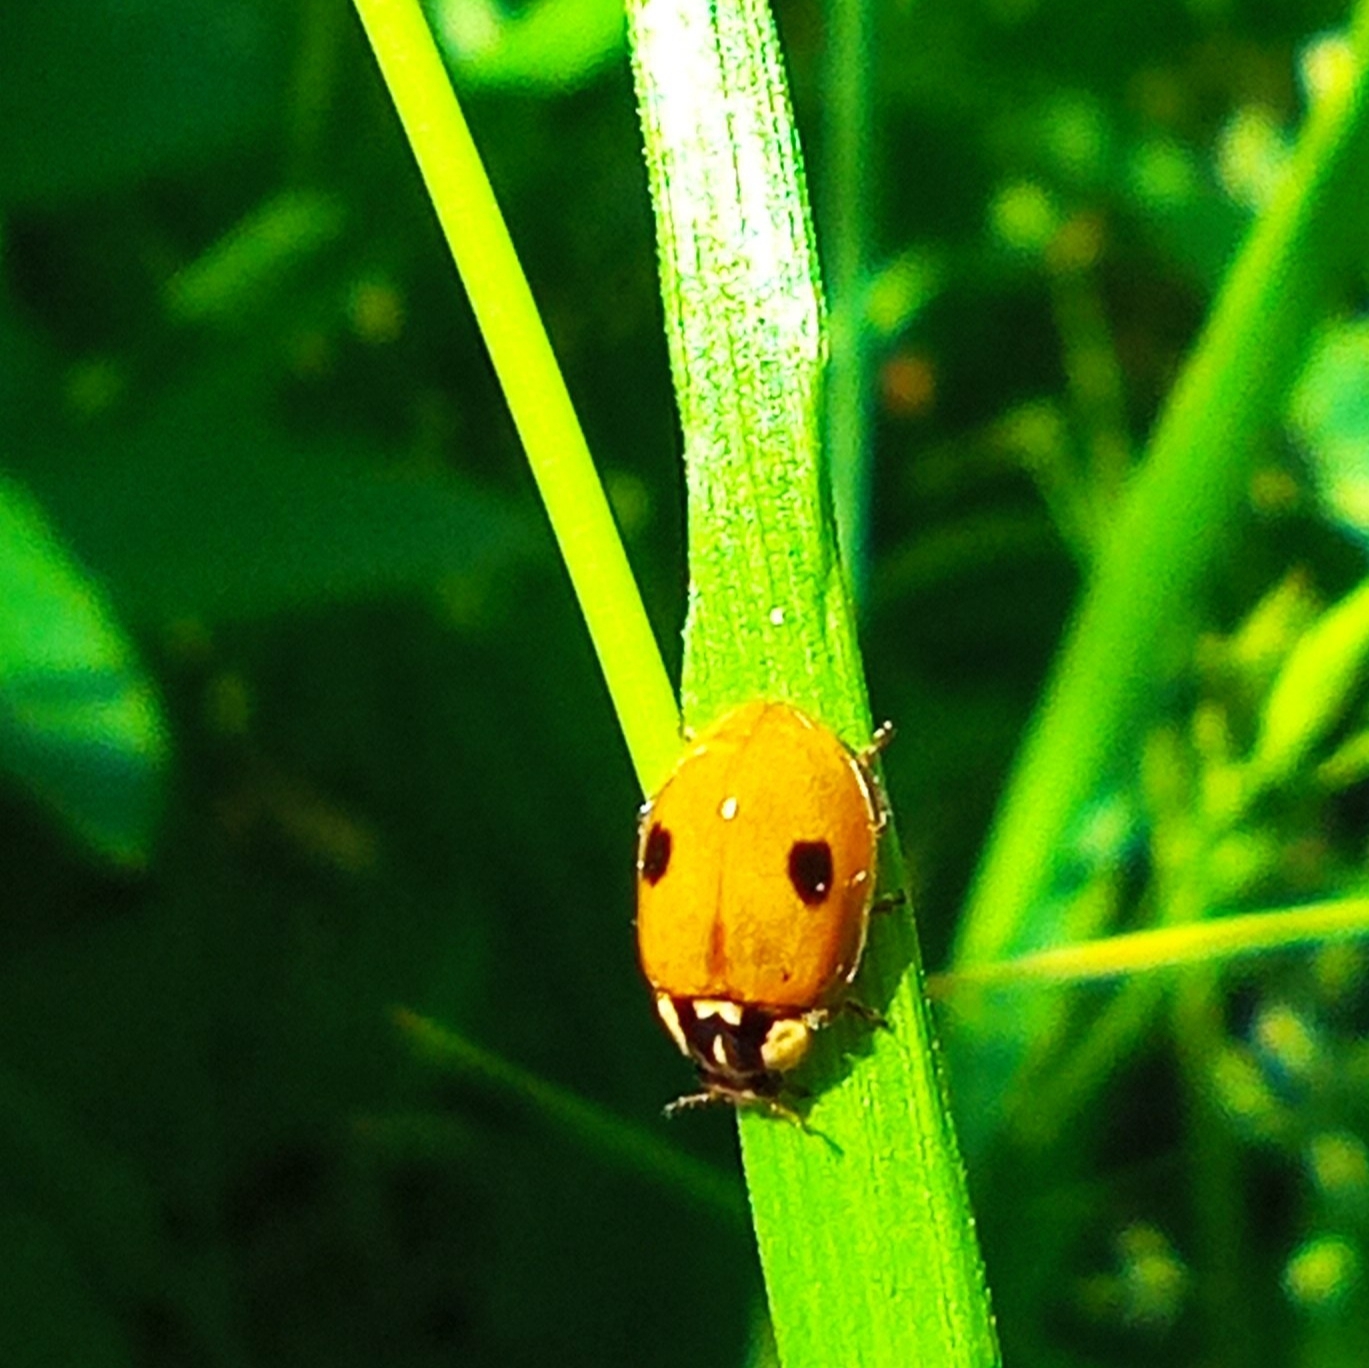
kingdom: Animalia
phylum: Arthropoda
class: Insecta
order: Coleoptera
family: Coccinellidae
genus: Adalia
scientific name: Adalia bipunctata
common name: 2-spot ladybird
